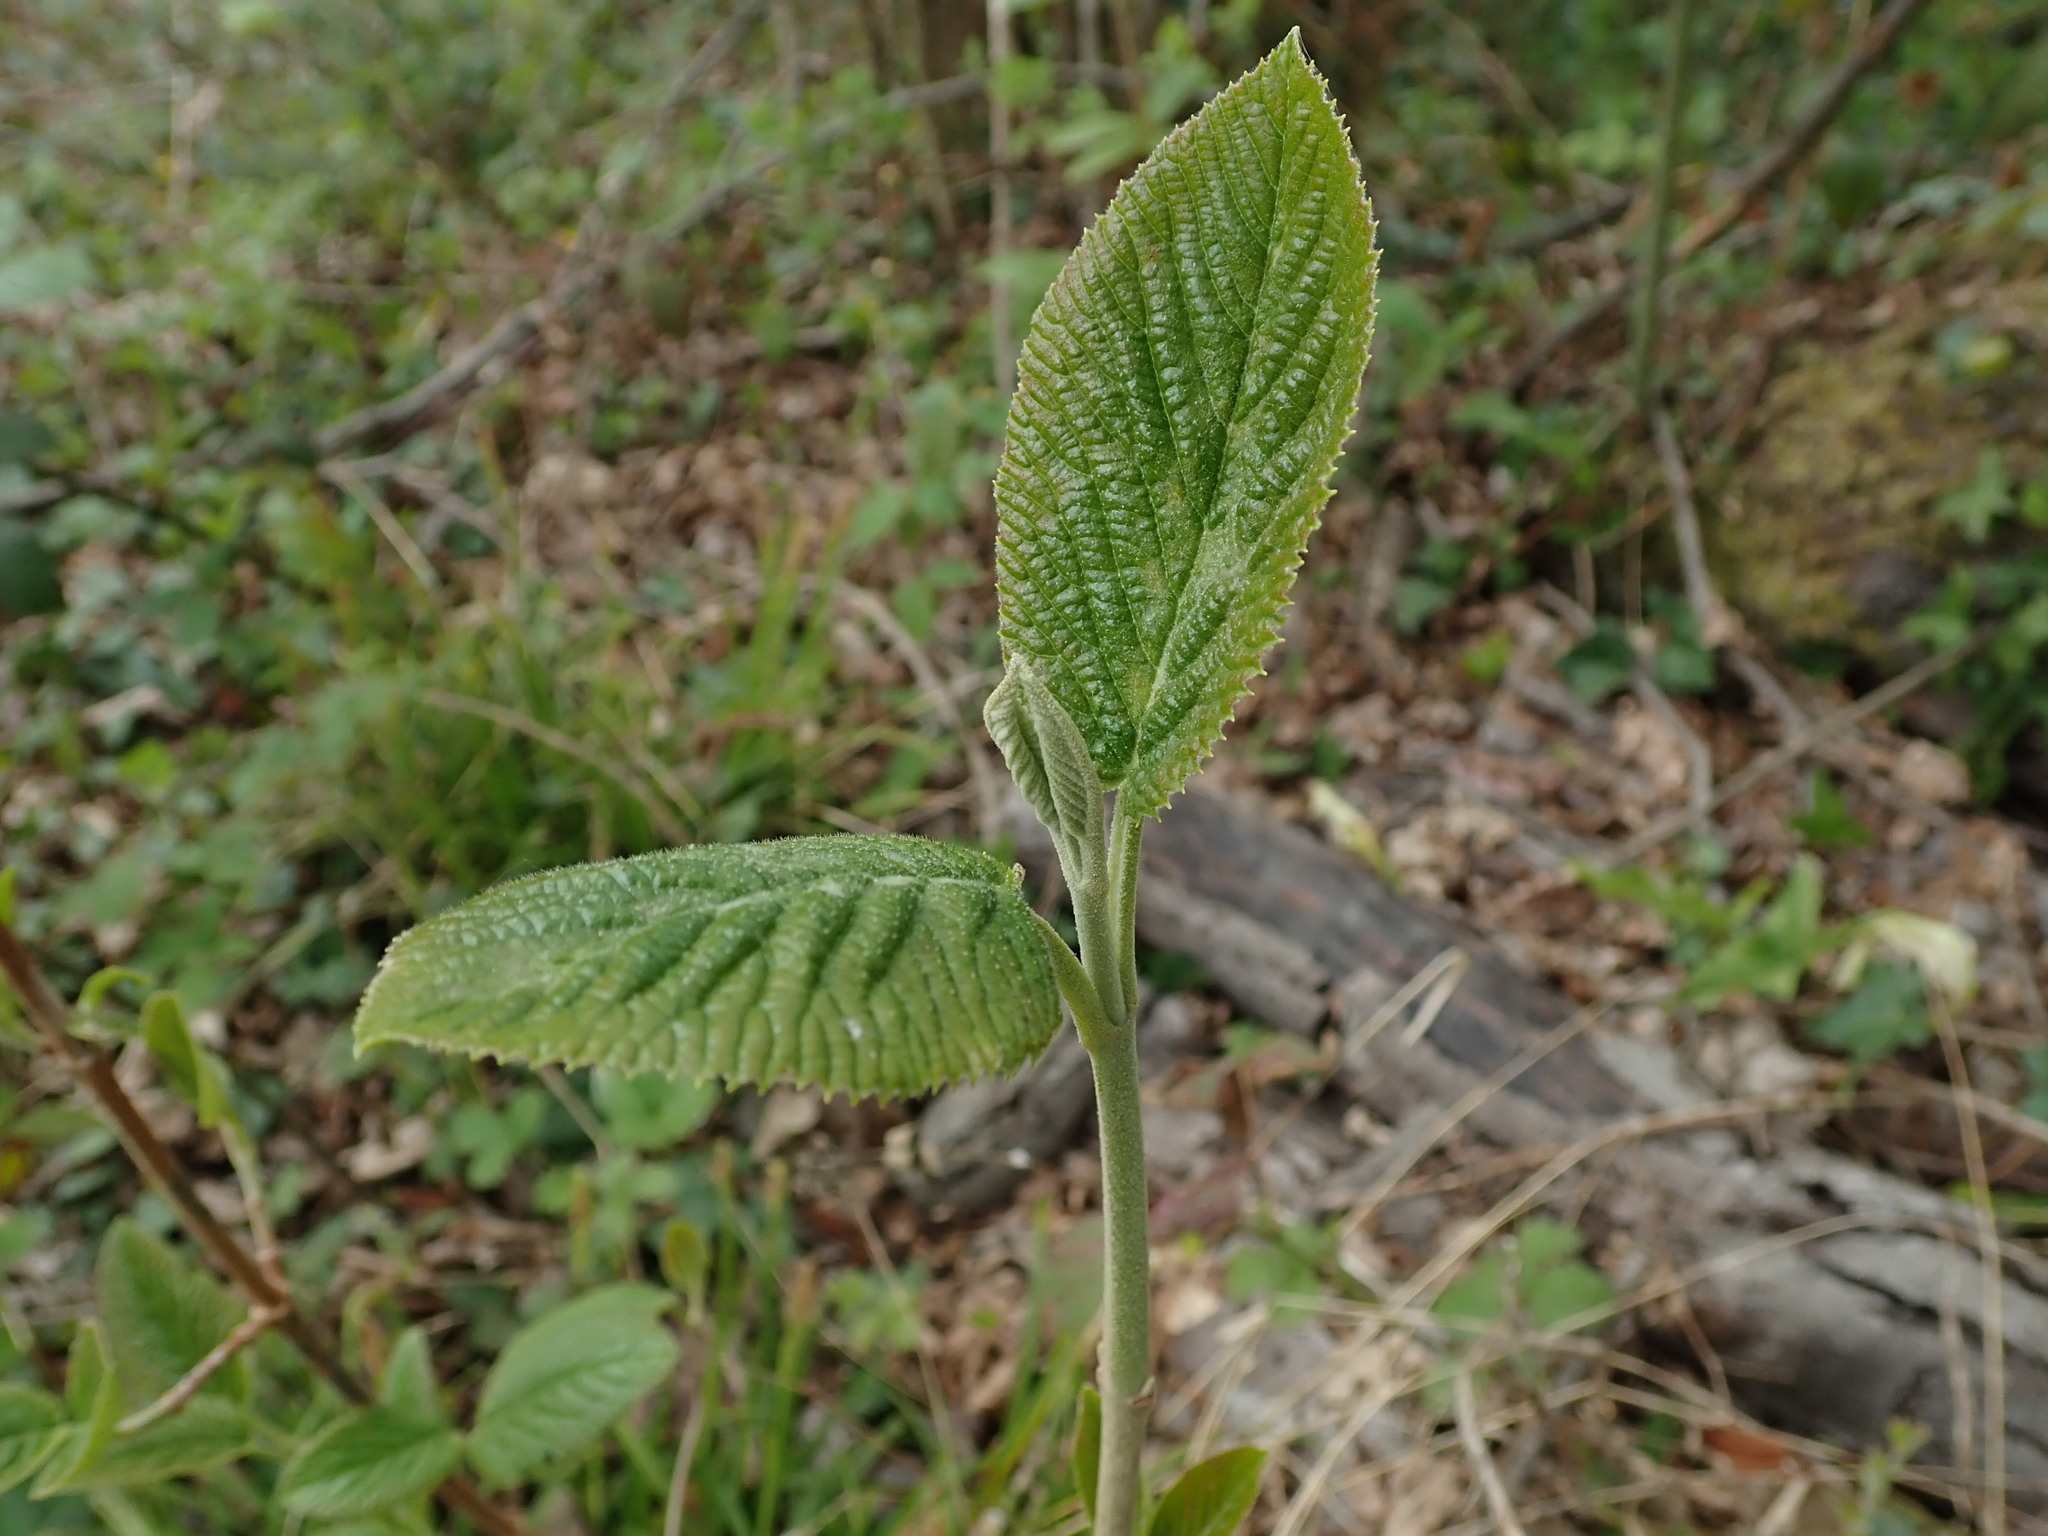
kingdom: Plantae
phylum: Tracheophyta
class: Magnoliopsida
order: Dipsacales
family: Viburnaceae
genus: Viburnum
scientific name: Viburnum lantana
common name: Wayfaring tree
